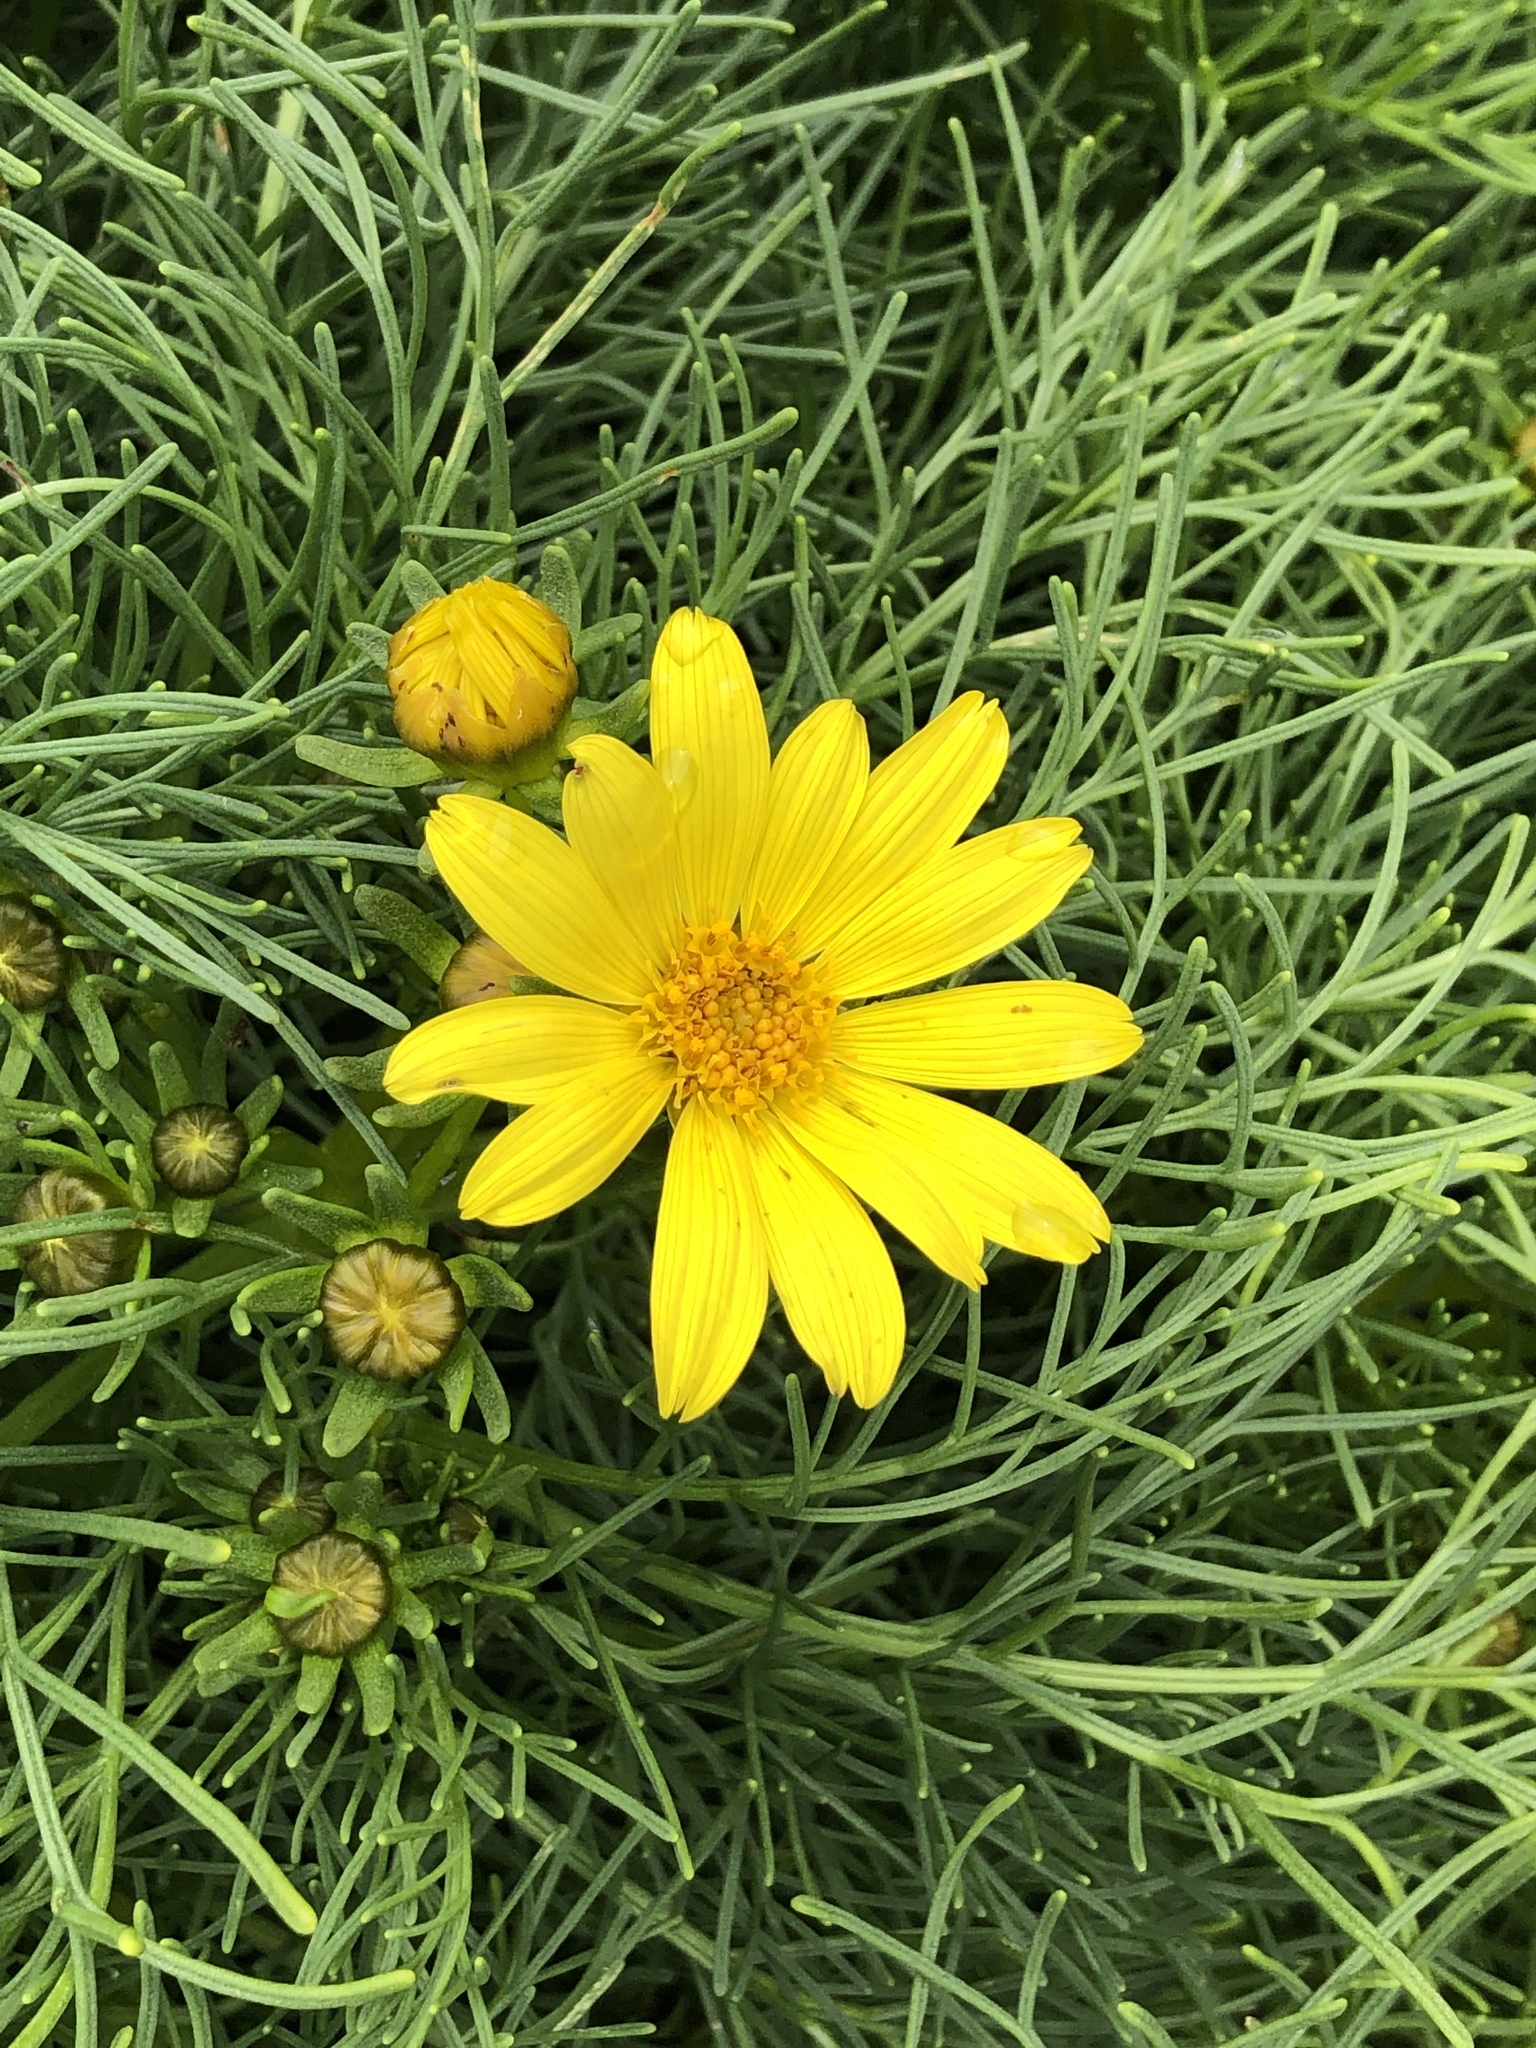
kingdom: Plantae
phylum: Tracheophyta
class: Magnoliopsida
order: Asterales
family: Asteraceae
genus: Coreopsis
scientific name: Coreopsis gigantea
